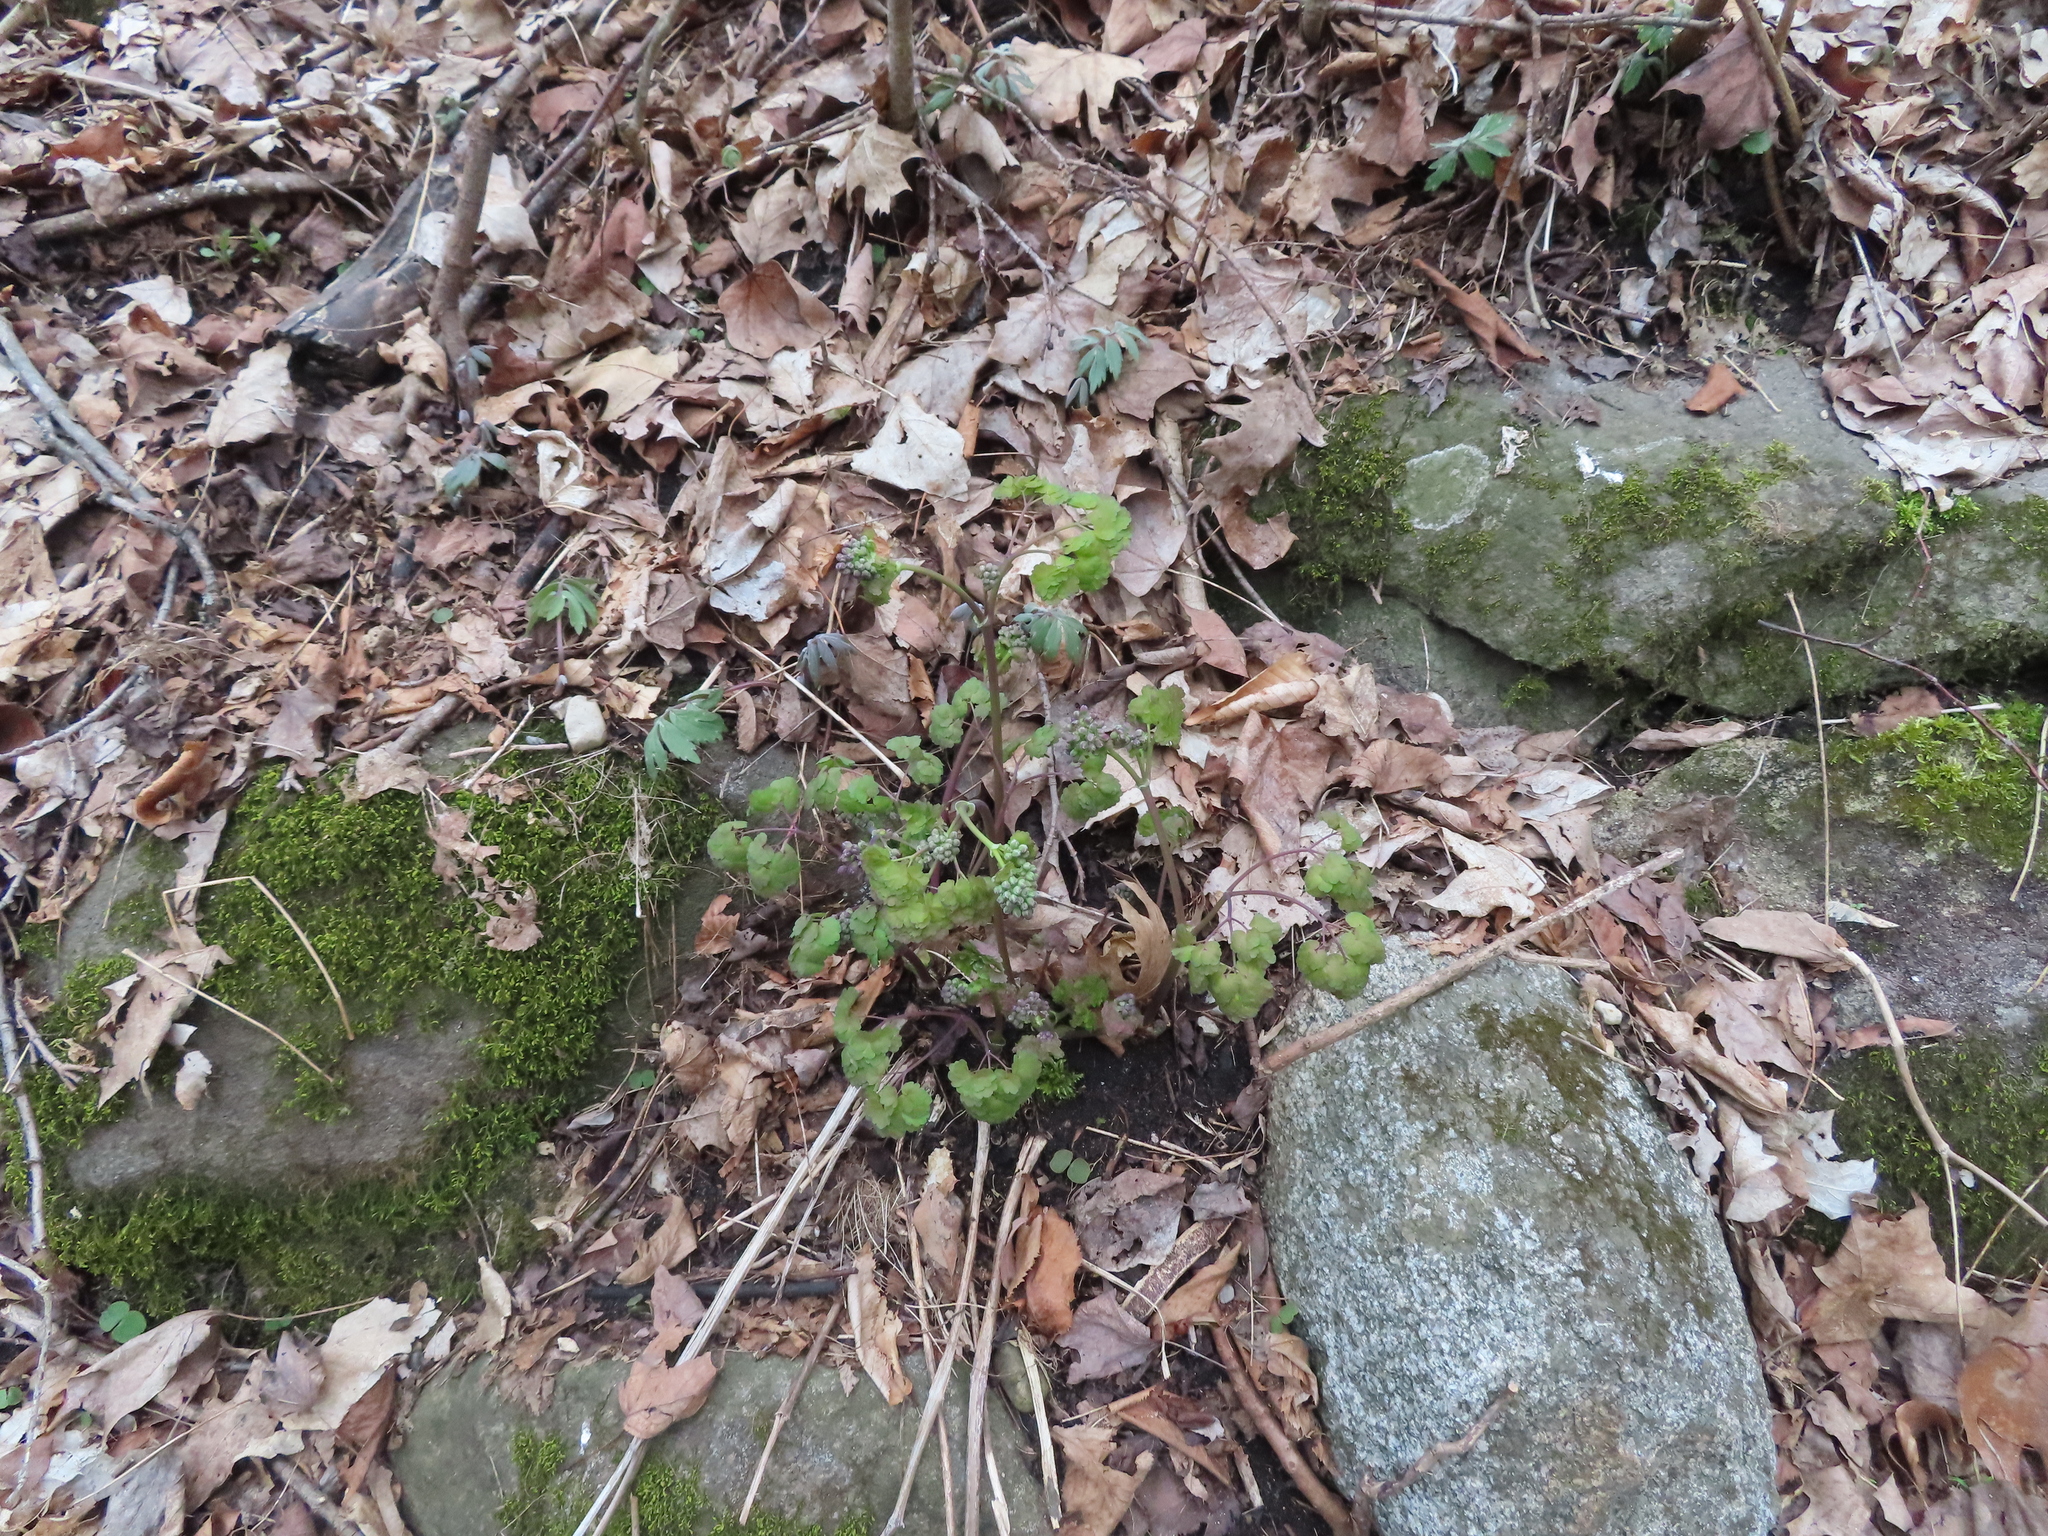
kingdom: Plantae
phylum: Tracheophyta
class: Magnoliopsida
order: Ranunculales
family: Ranunculaceae
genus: Thalictrum
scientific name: Thalictrum dioicum
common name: Early meadow-rue
